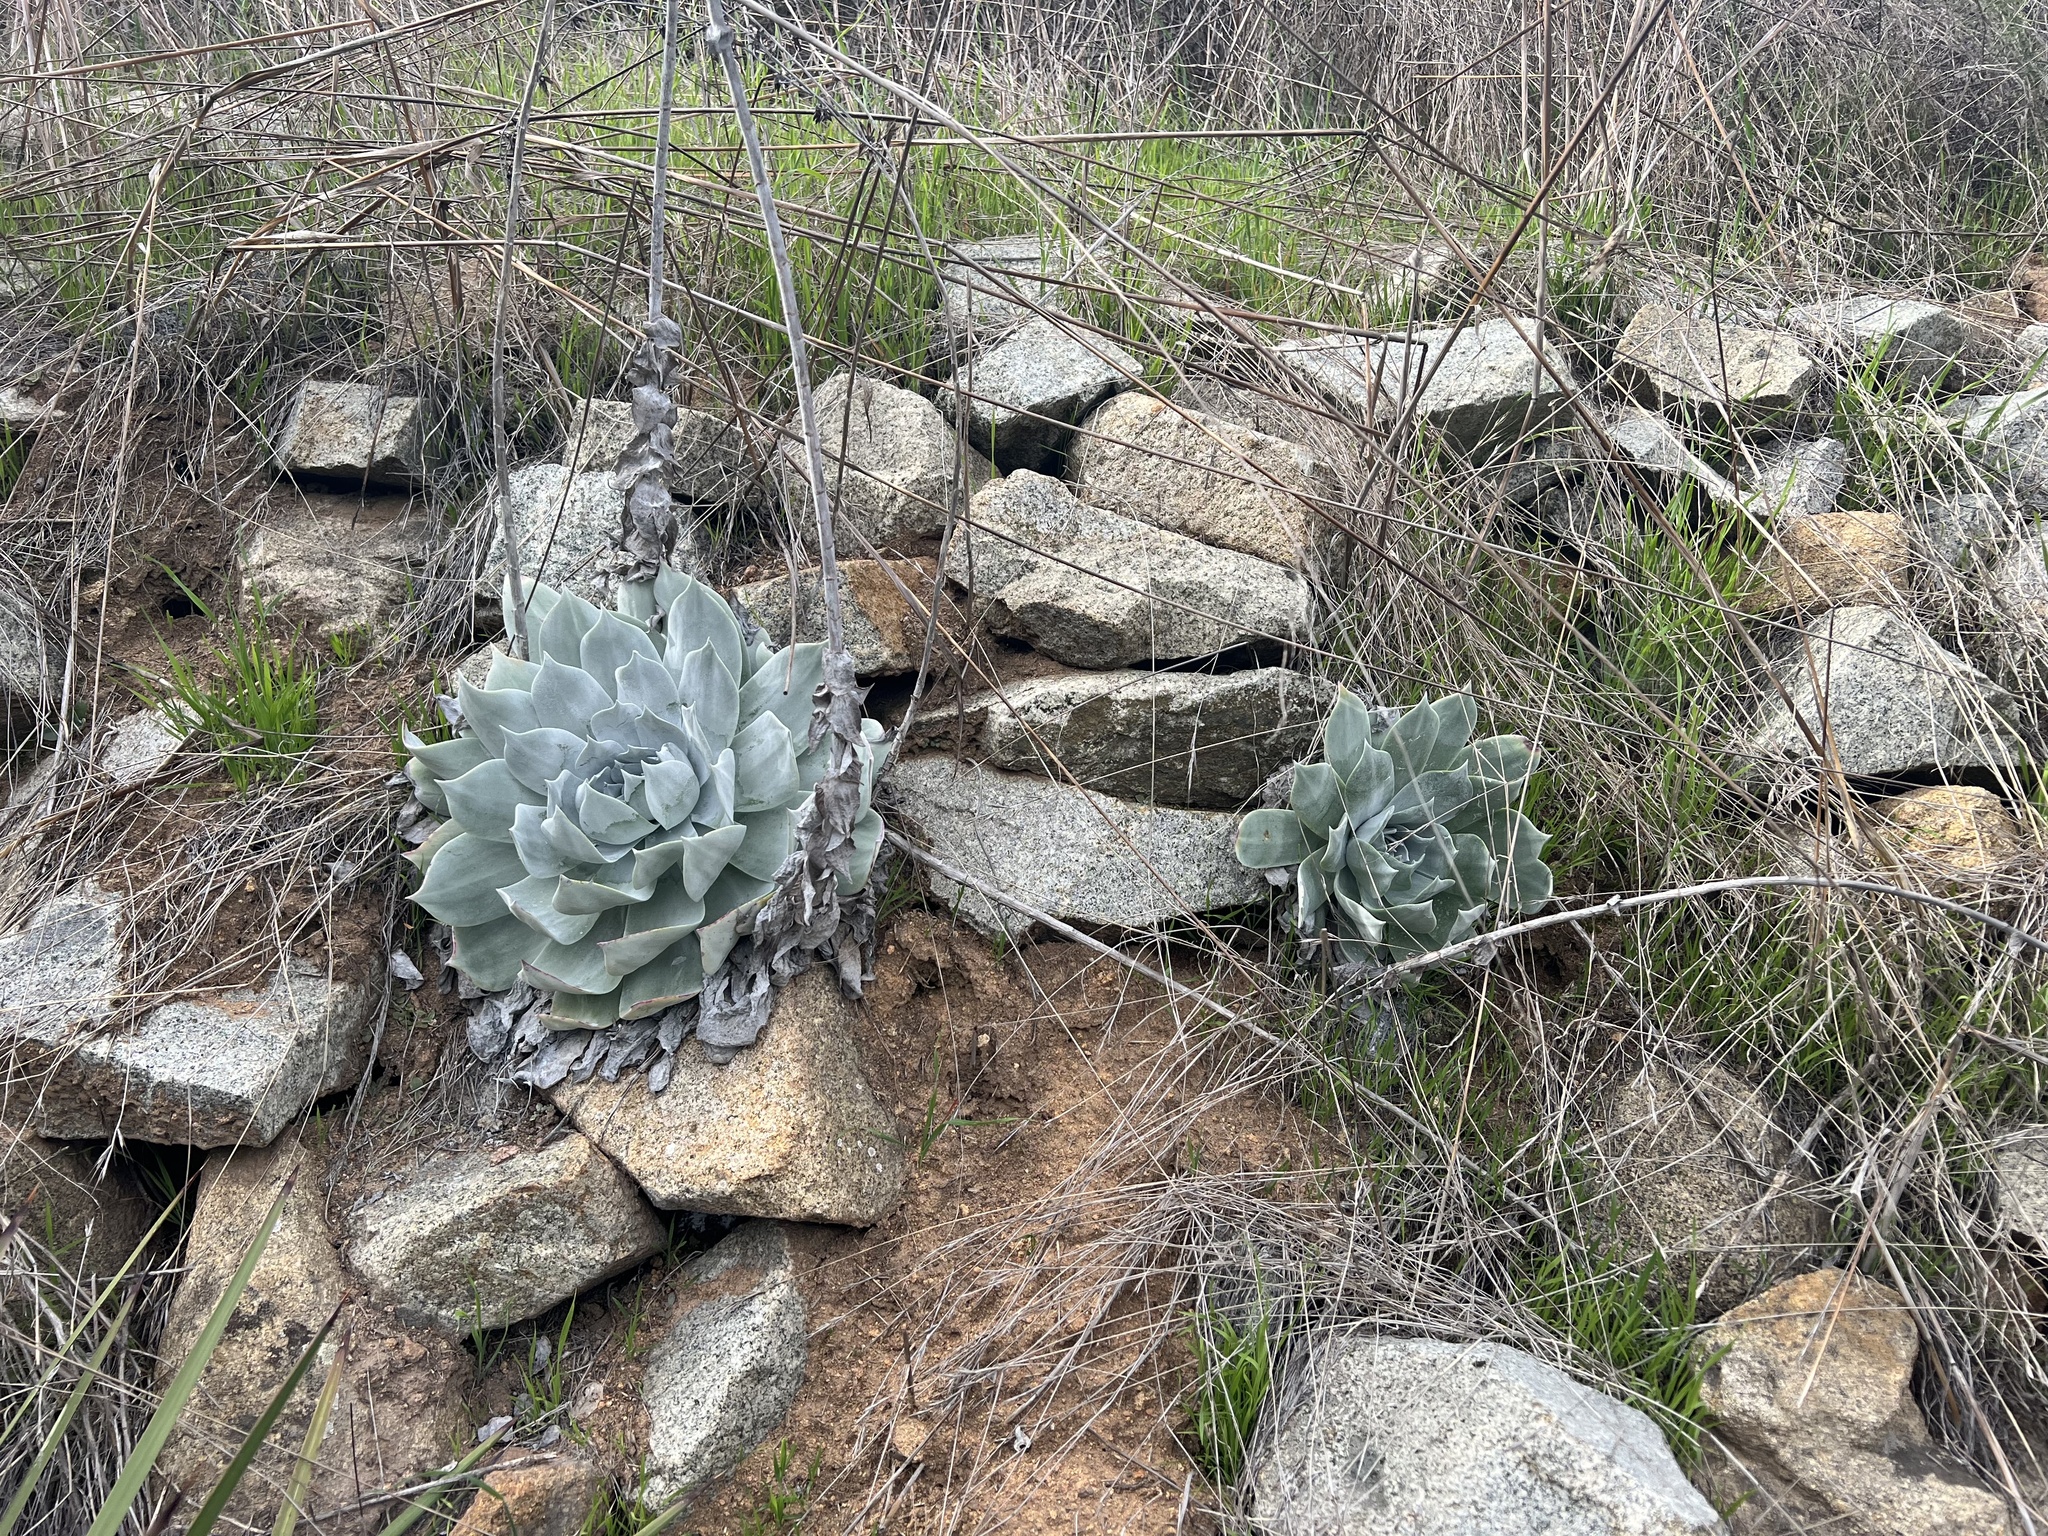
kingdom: Plantae
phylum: Tracheophyta
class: Magnoliopsida
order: Saxifragales
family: Crassulaceae
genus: Dudleya
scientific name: Dudleya pulverulenta
